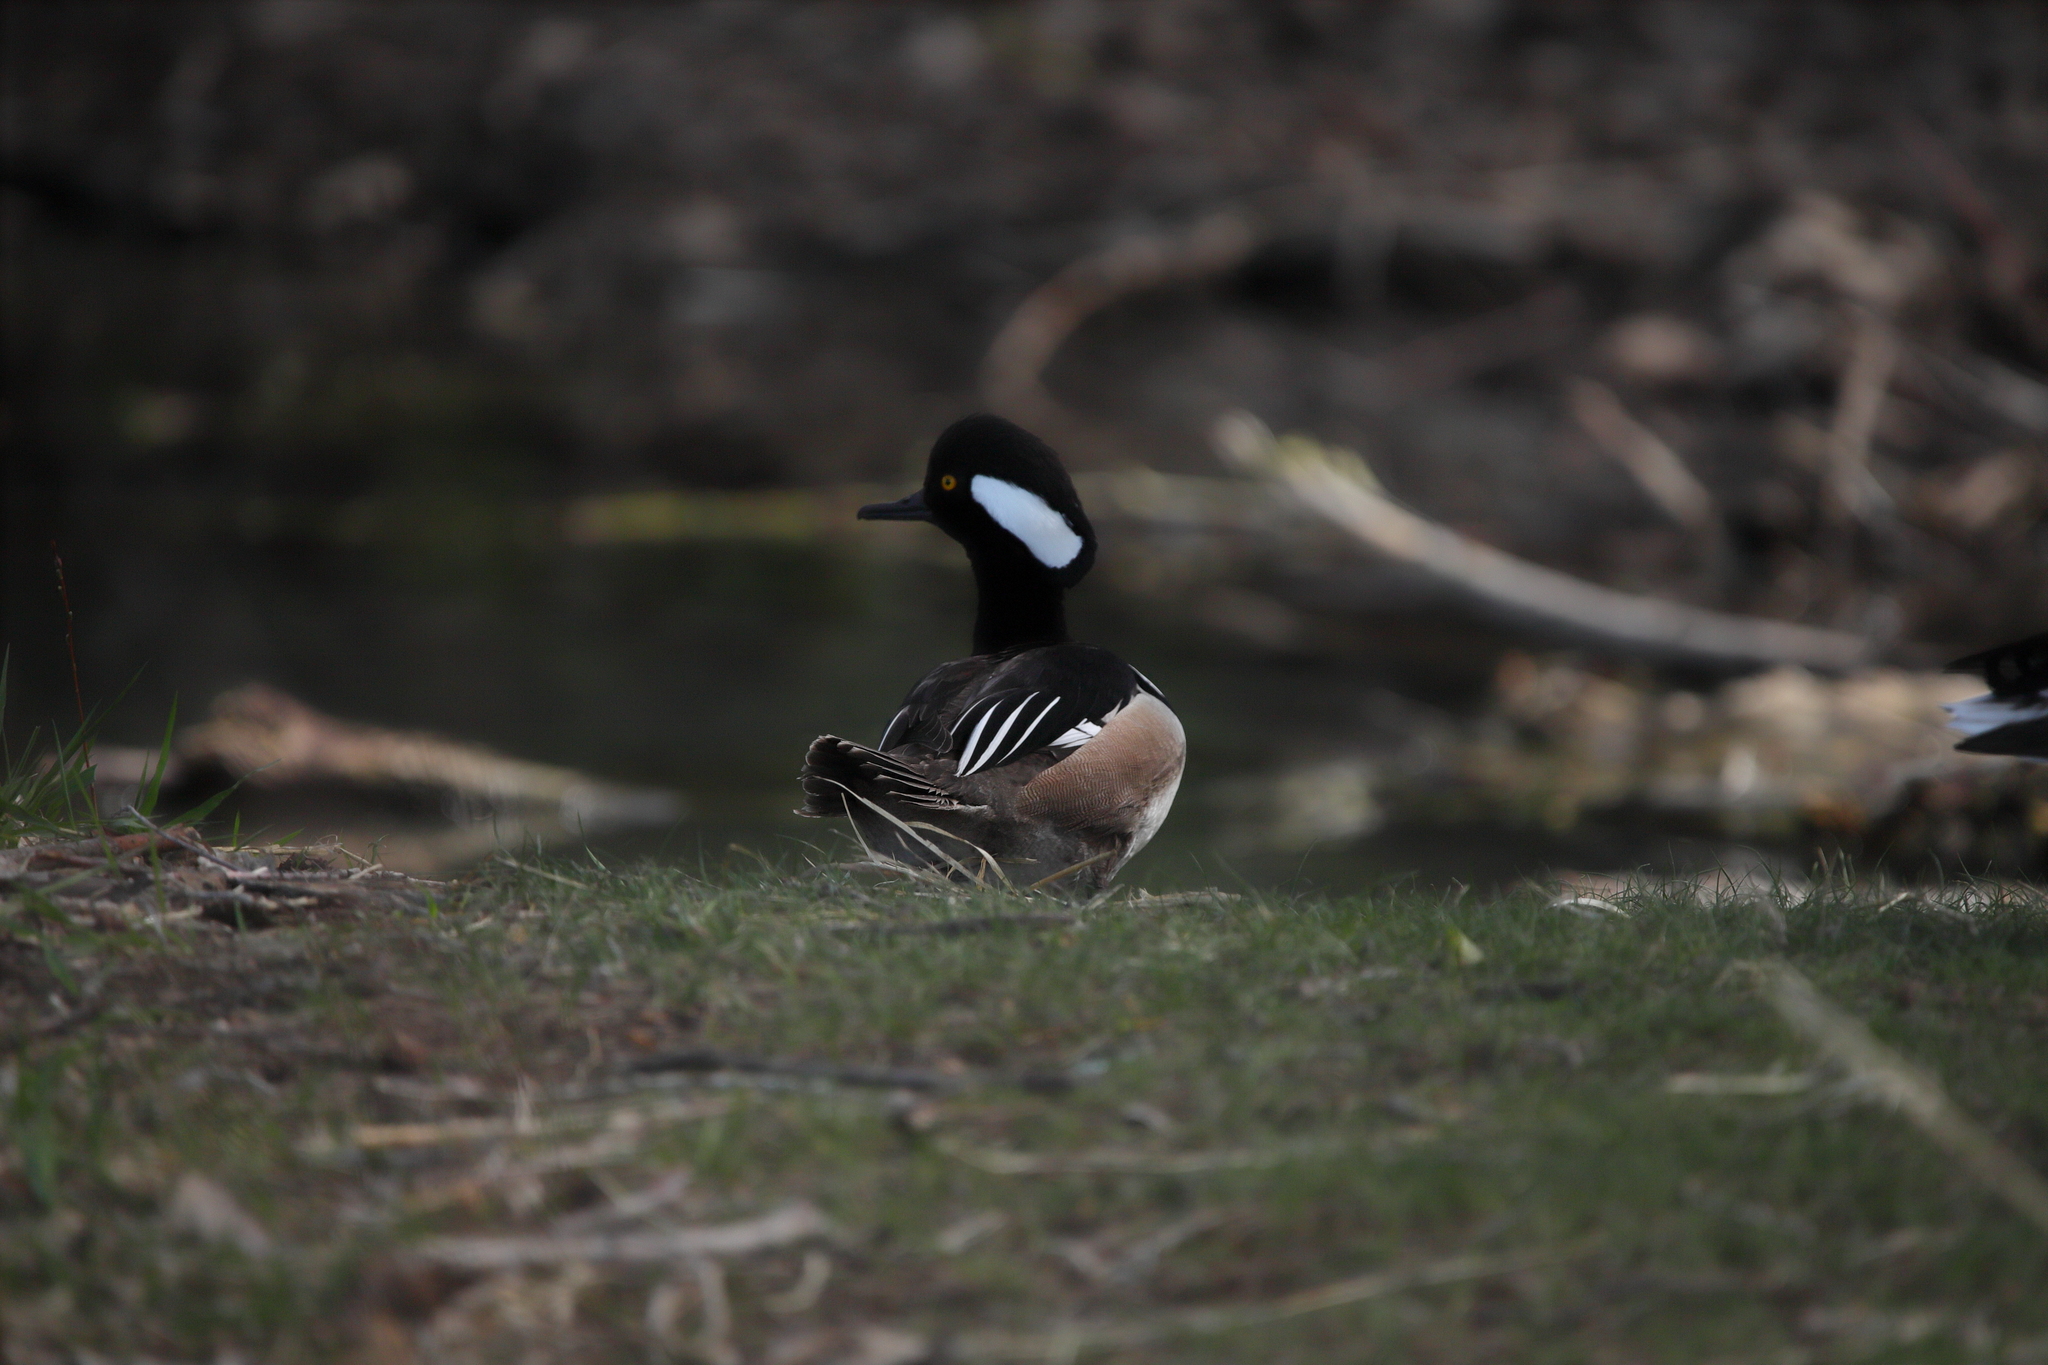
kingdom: Animalia
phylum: Chordata
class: Aves
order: Anseriformes
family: Anatidae
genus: Lophodytes
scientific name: Lophodytes cucullatus
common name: Hooded merganser
